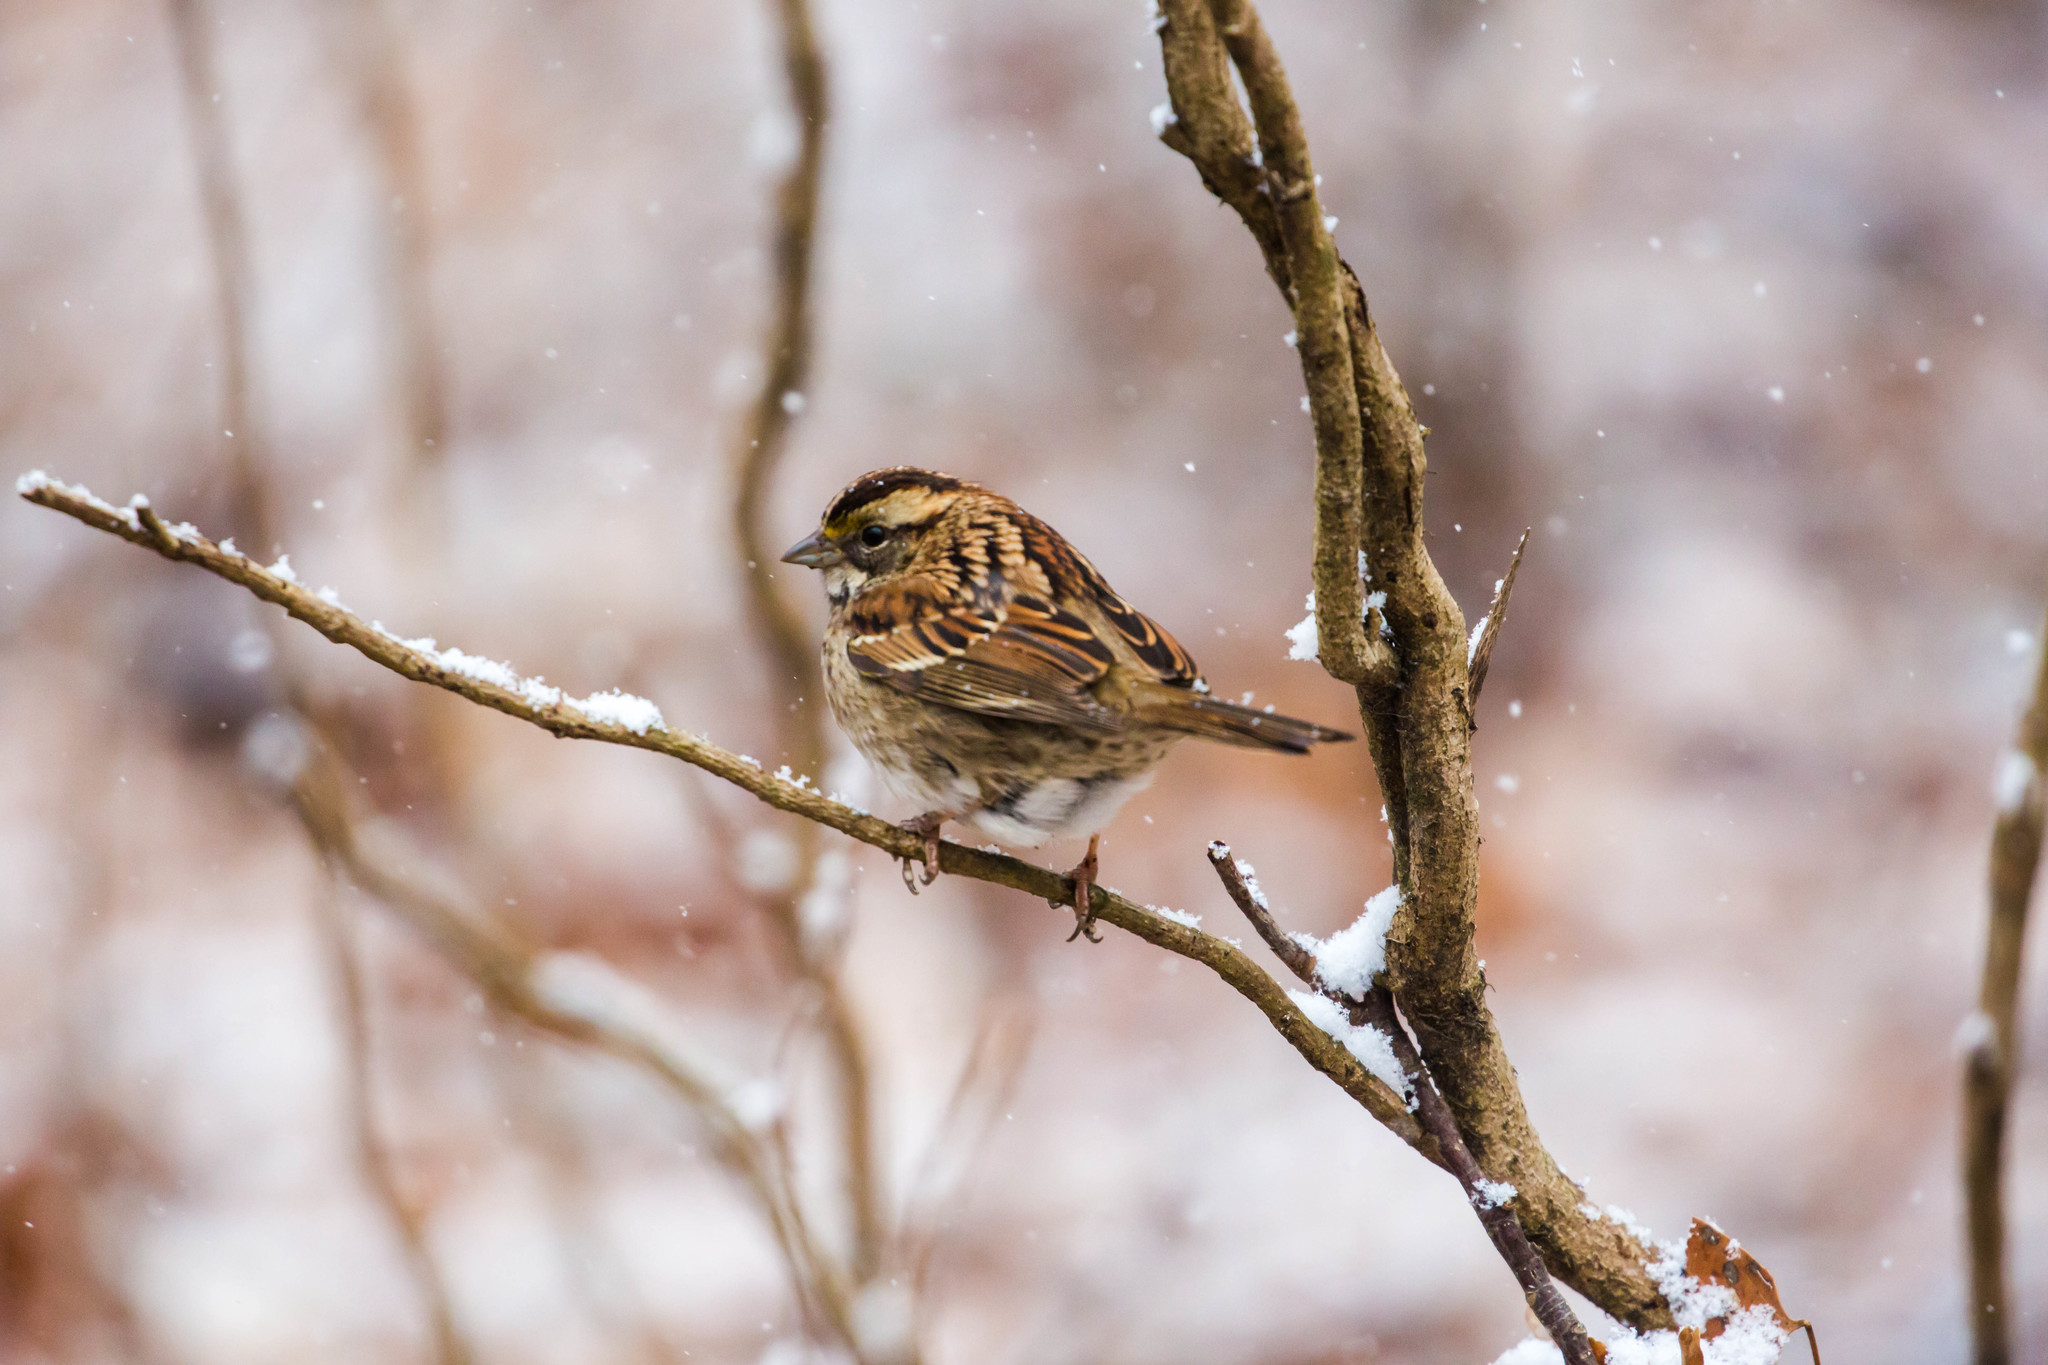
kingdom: Animalia
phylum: Chordata
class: Aves
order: Passeriformes
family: Passerellidae
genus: Zonotrichia
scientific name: Zonotrichia albicollis
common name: White-throated sparrow
